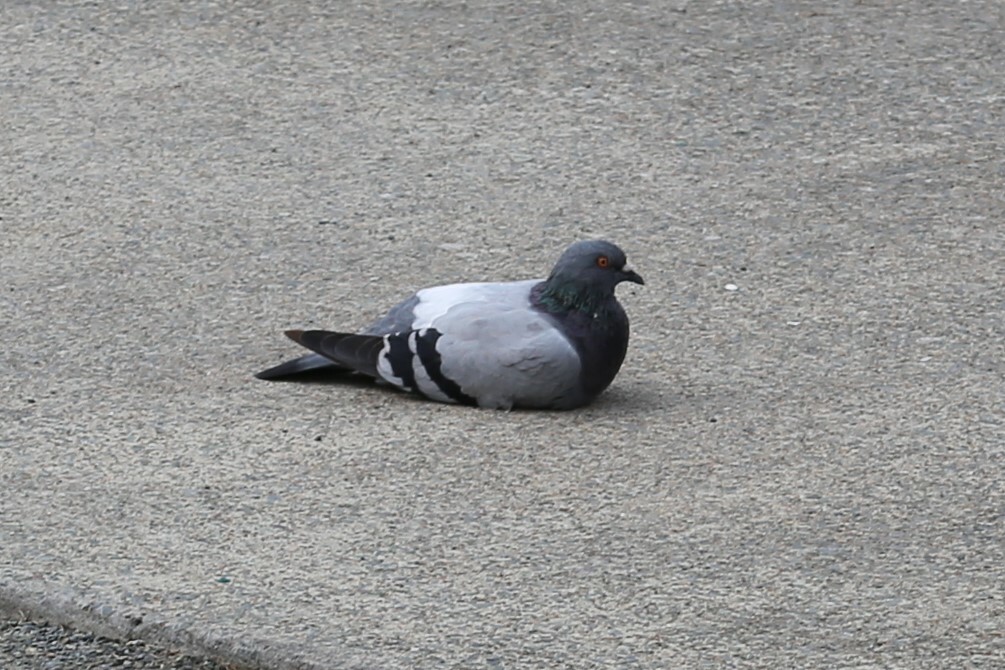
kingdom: Animalia
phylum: Chordata
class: Aves
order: Columbiformes
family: Columbidae
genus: Columba
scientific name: Columba livia
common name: Rock pigeon
